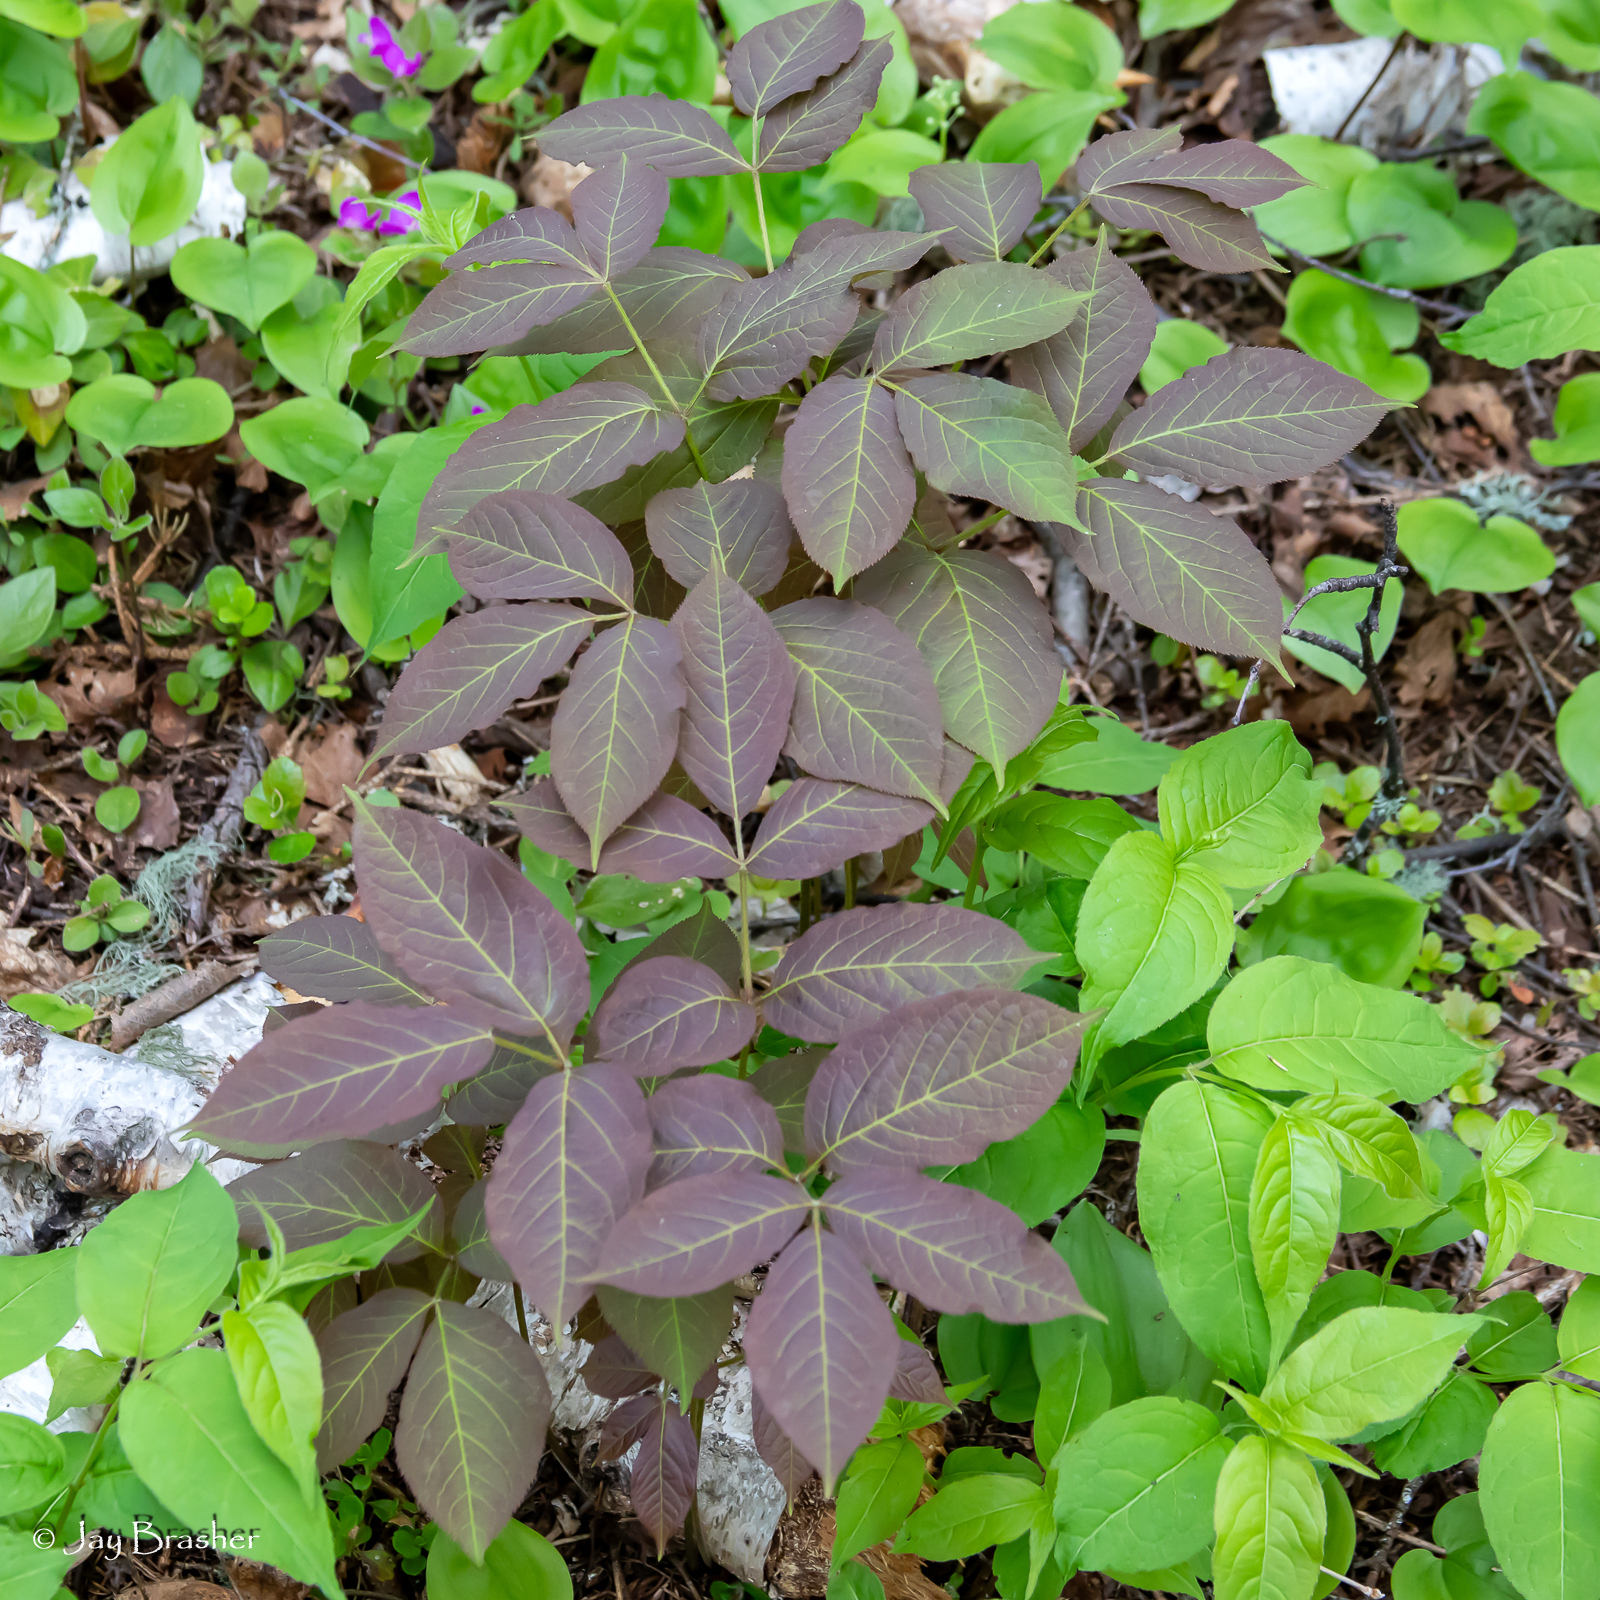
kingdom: Plantae
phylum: Tracheophyta
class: Magnoliopsida
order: Apiales
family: Araliaceae
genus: Aralia
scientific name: Aralia nudicaulis
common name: Wild sarsaparilla
